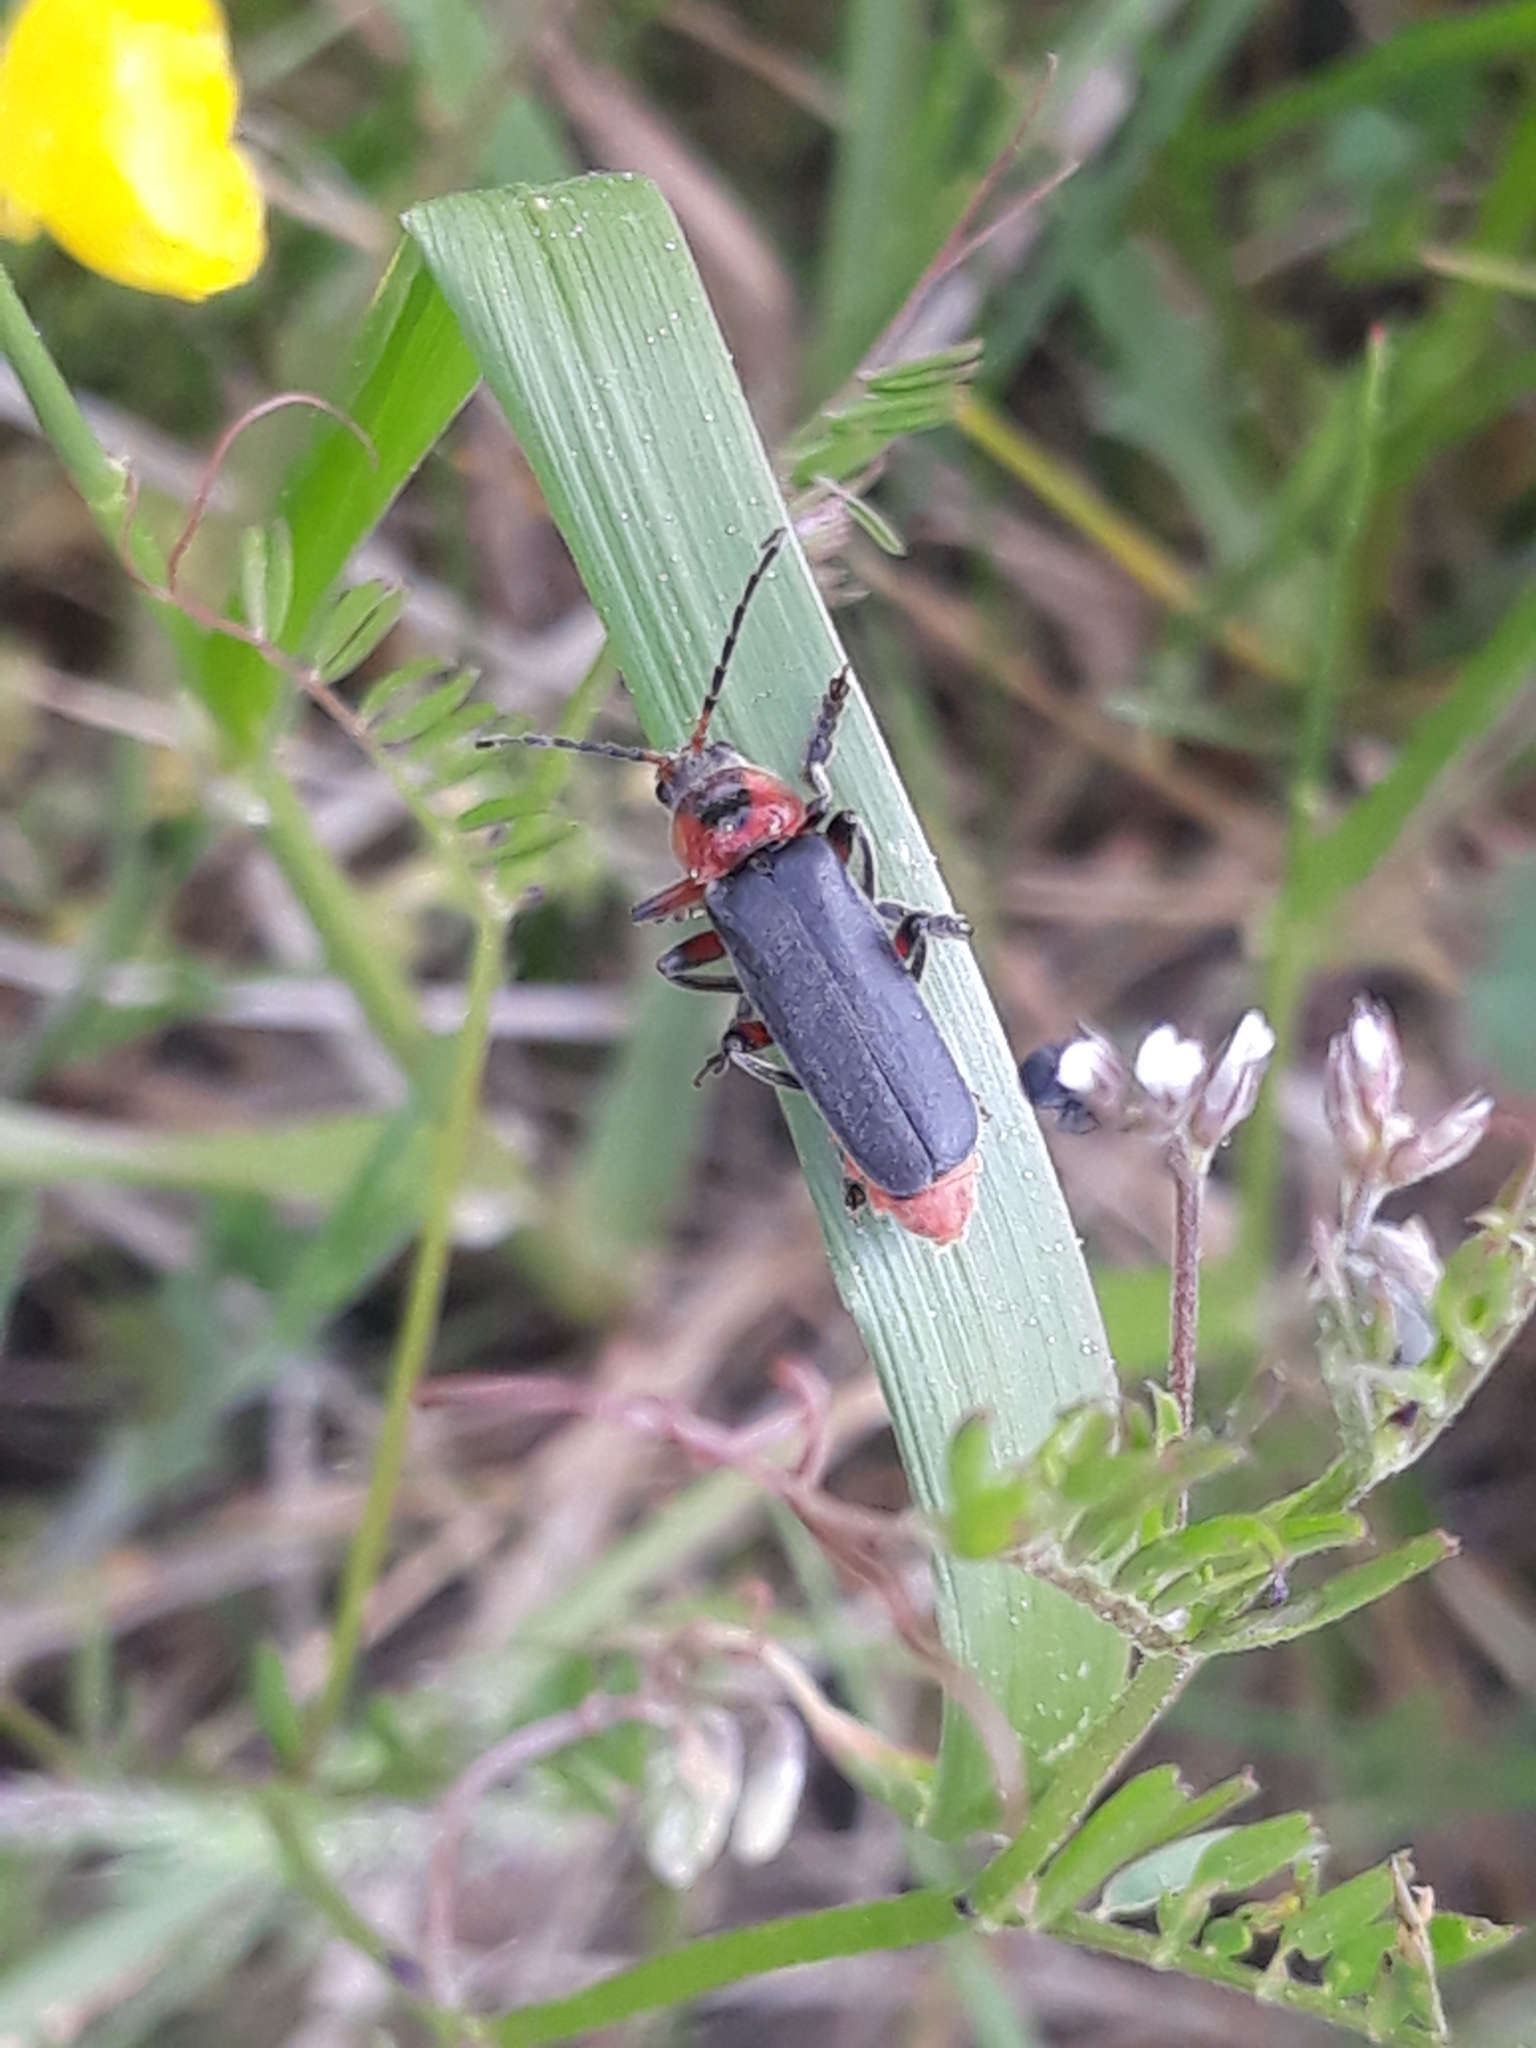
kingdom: Animalia
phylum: Arthropoda
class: Insecta
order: Coleoptera
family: Cantharidae
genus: Cantharis
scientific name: Cantharis rustica
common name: Soldier beetle
